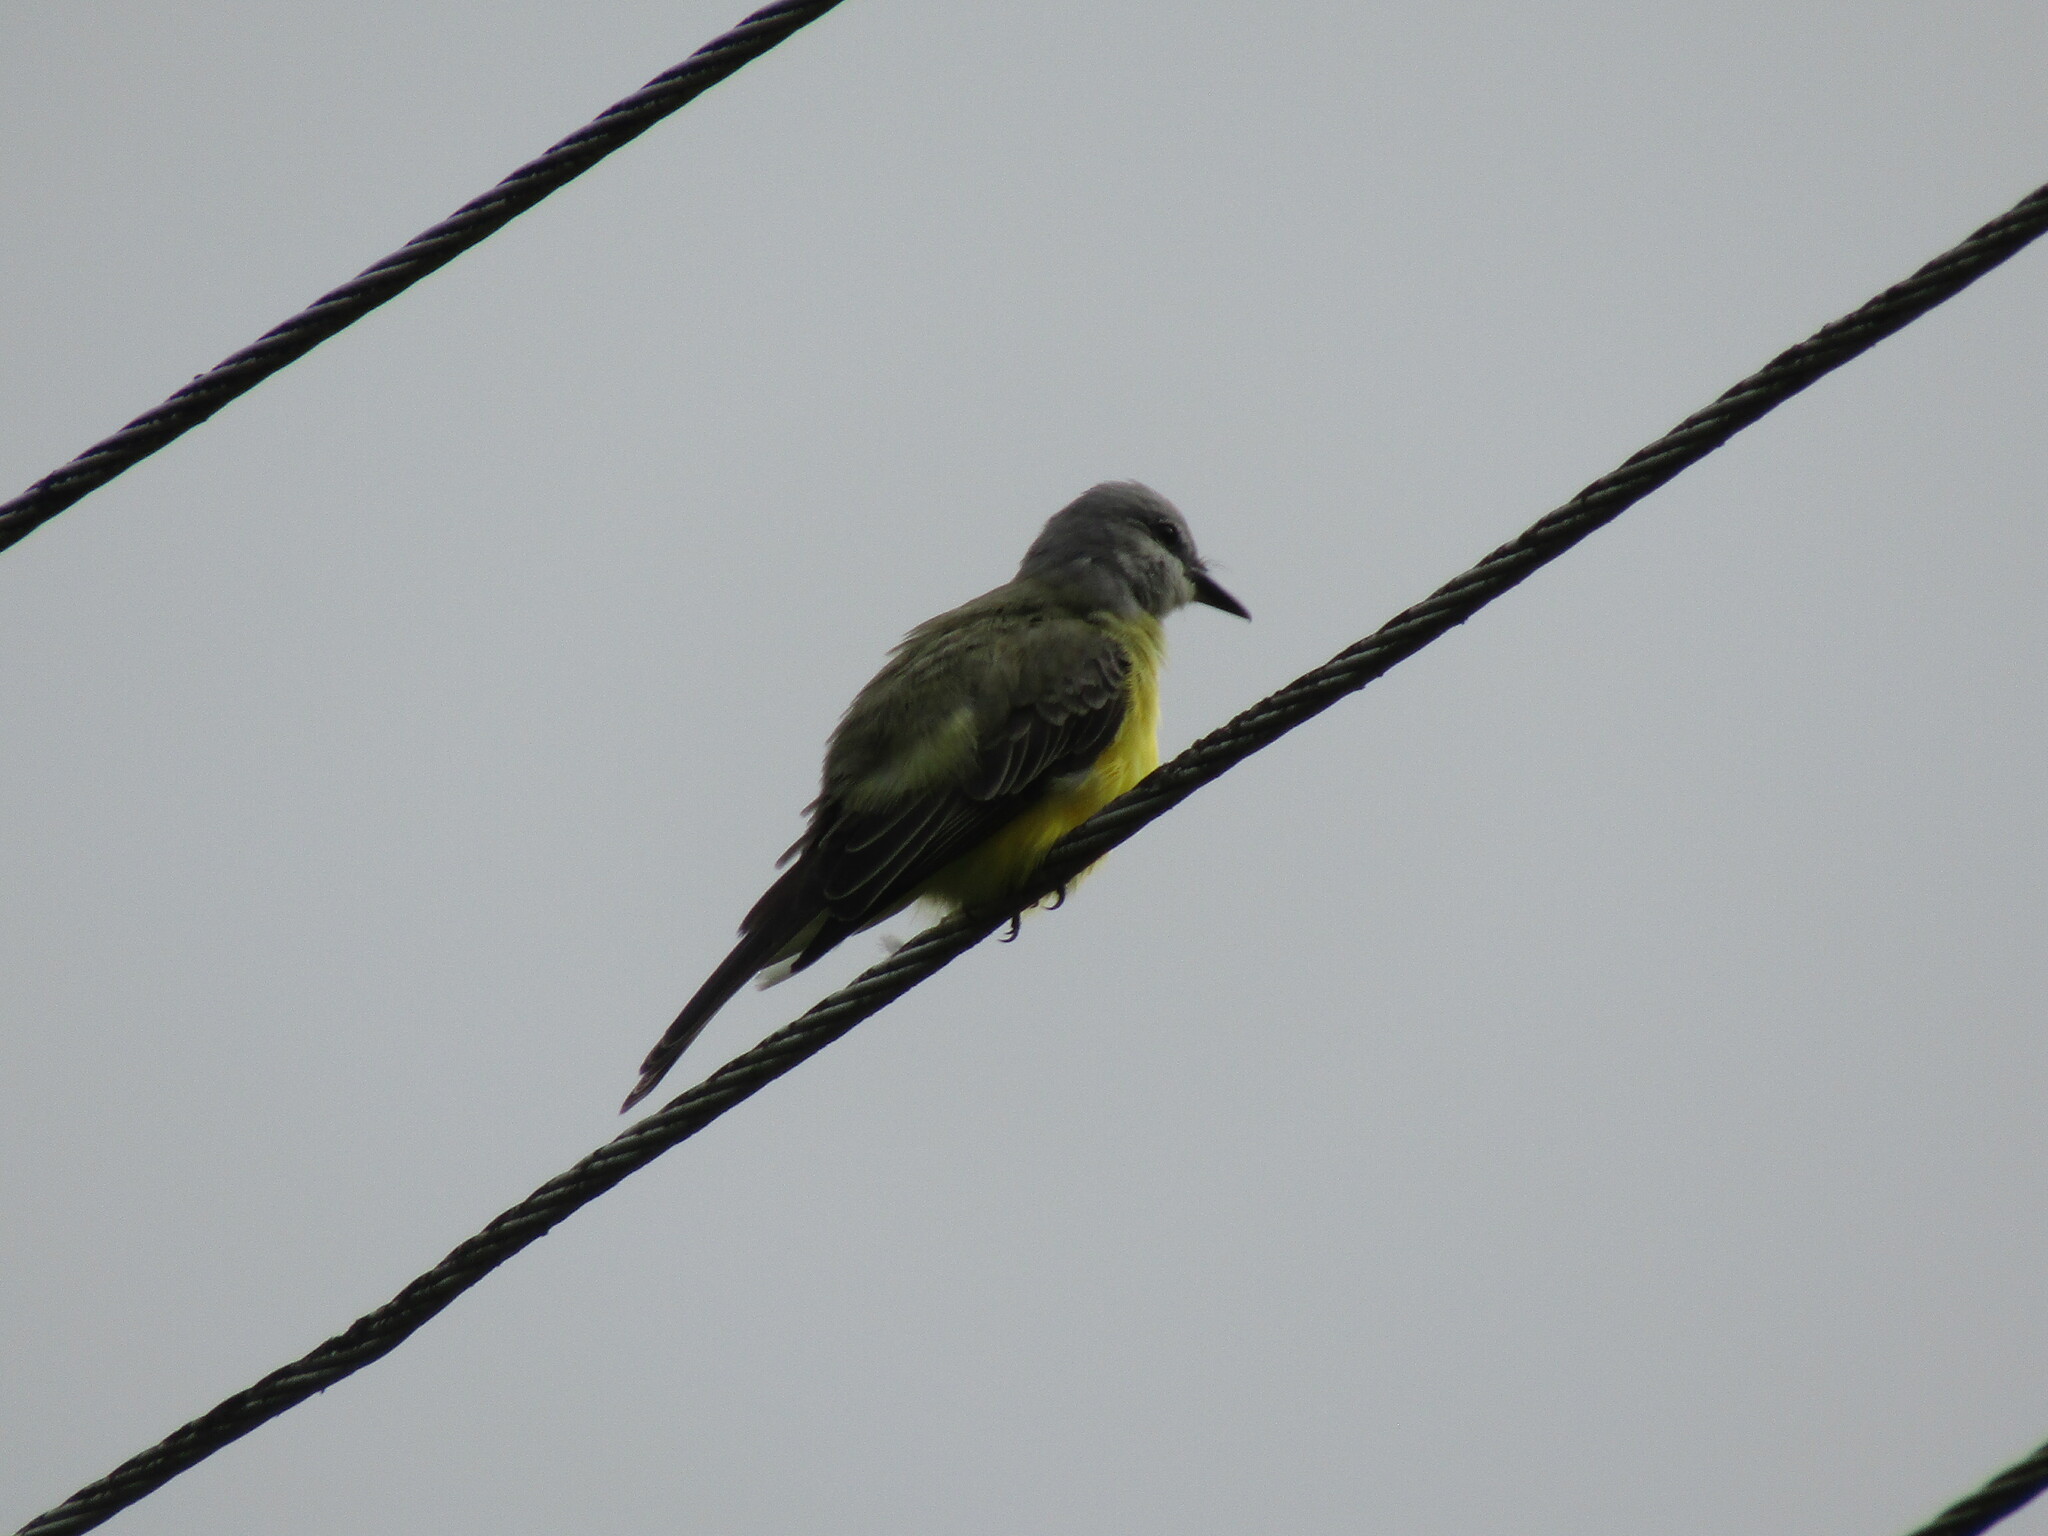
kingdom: Animalia
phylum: Chordata
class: Aves
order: Passeriformes
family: Tyrannidae
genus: Tyrannus
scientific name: Tyrannus melancholicus
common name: Tropical kingbird
